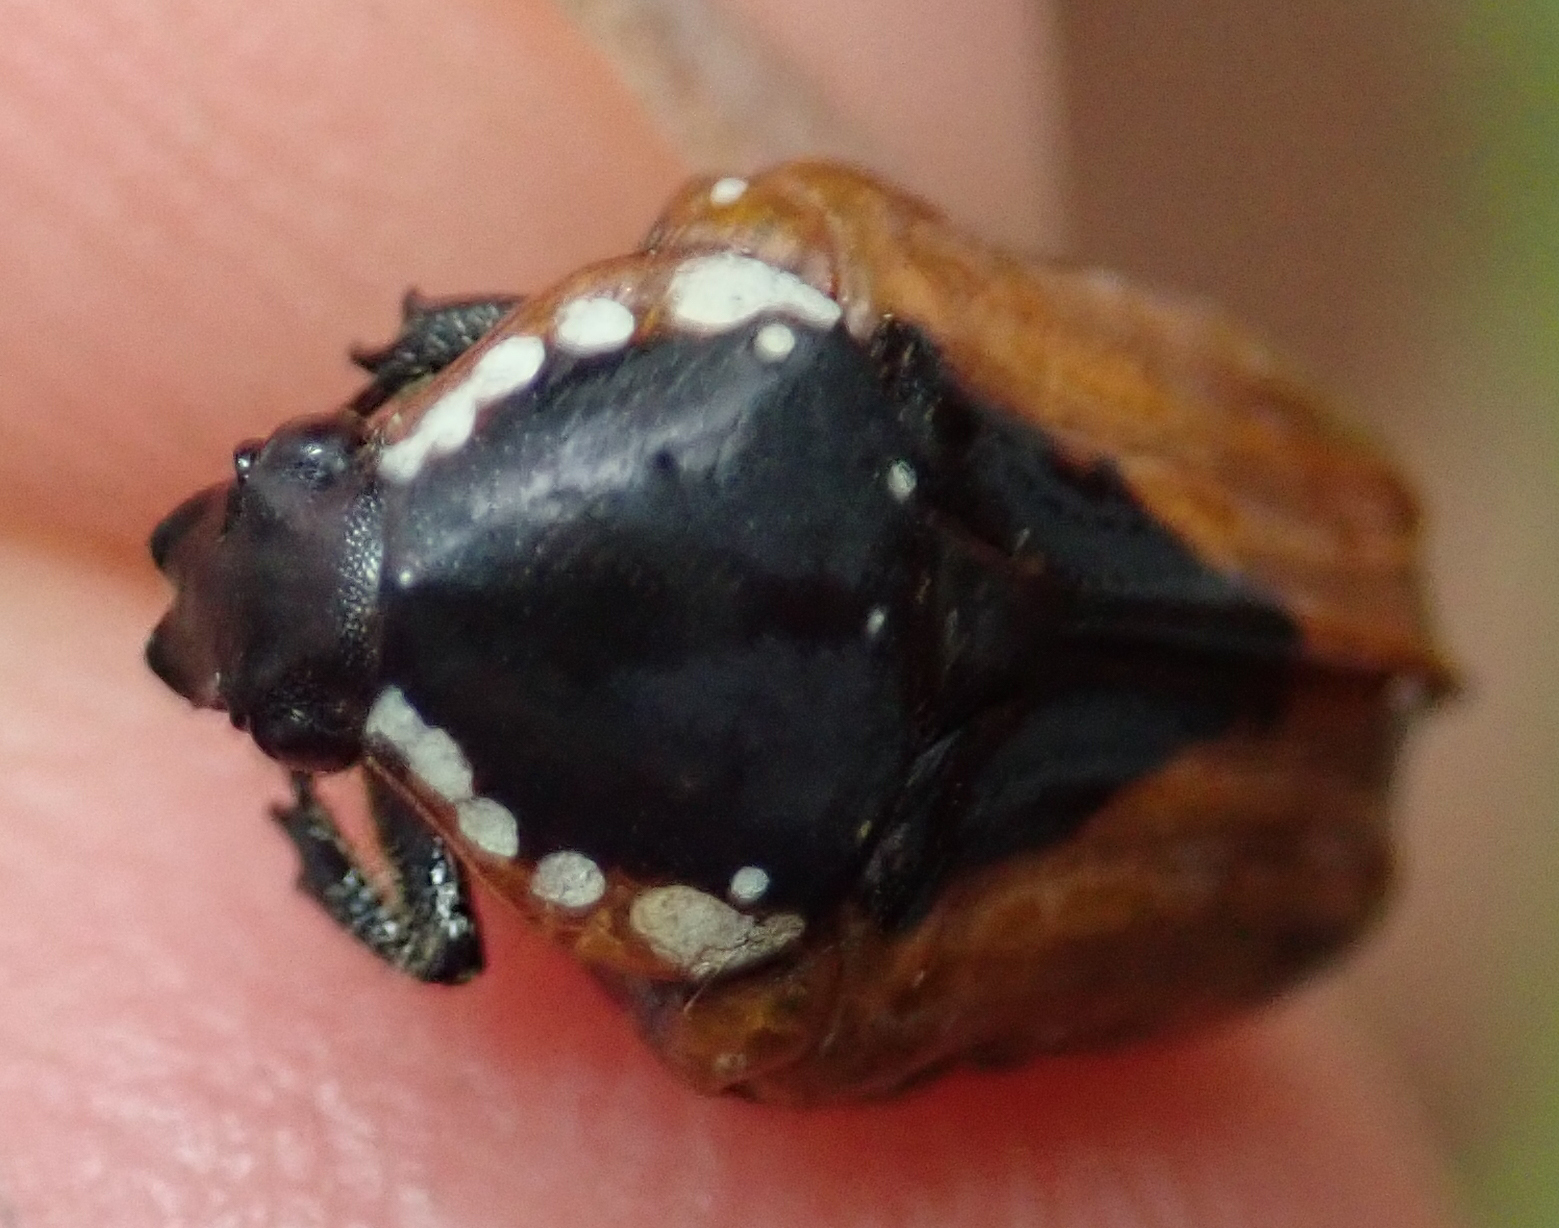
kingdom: Animalia
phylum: Arthropoda
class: Insecta
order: Coleoptera
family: Scarabaeidae
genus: Dolichostethus
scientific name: Dolichostethus levis
